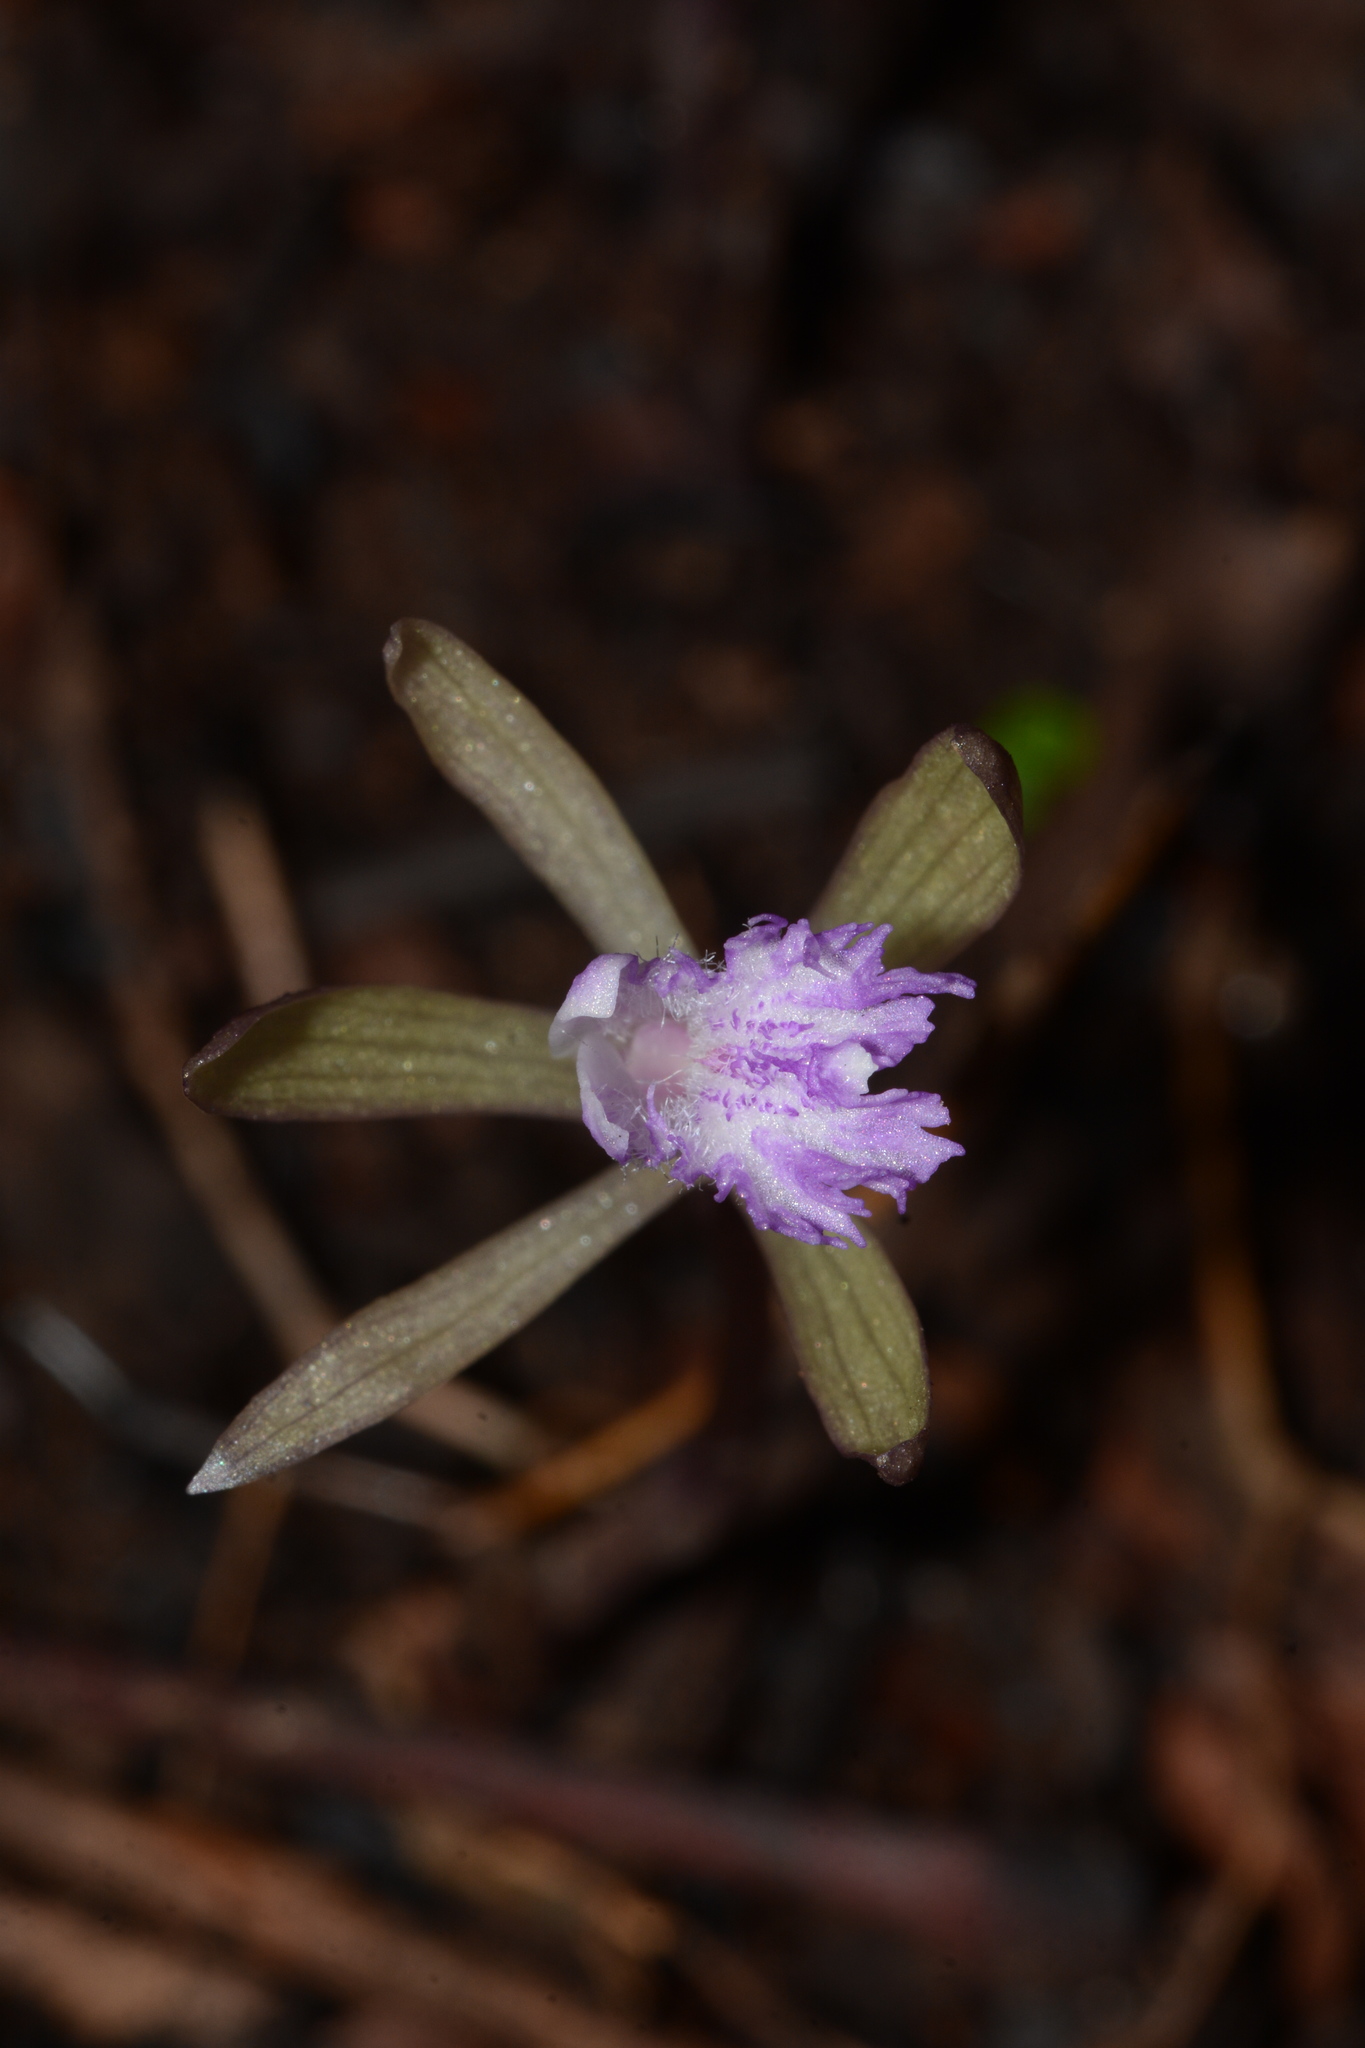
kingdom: Plantae
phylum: Tracheophyta
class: Liliopsida
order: Asparagales
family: Orchidaceae
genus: Nervilia
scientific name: Nervilia simplex
